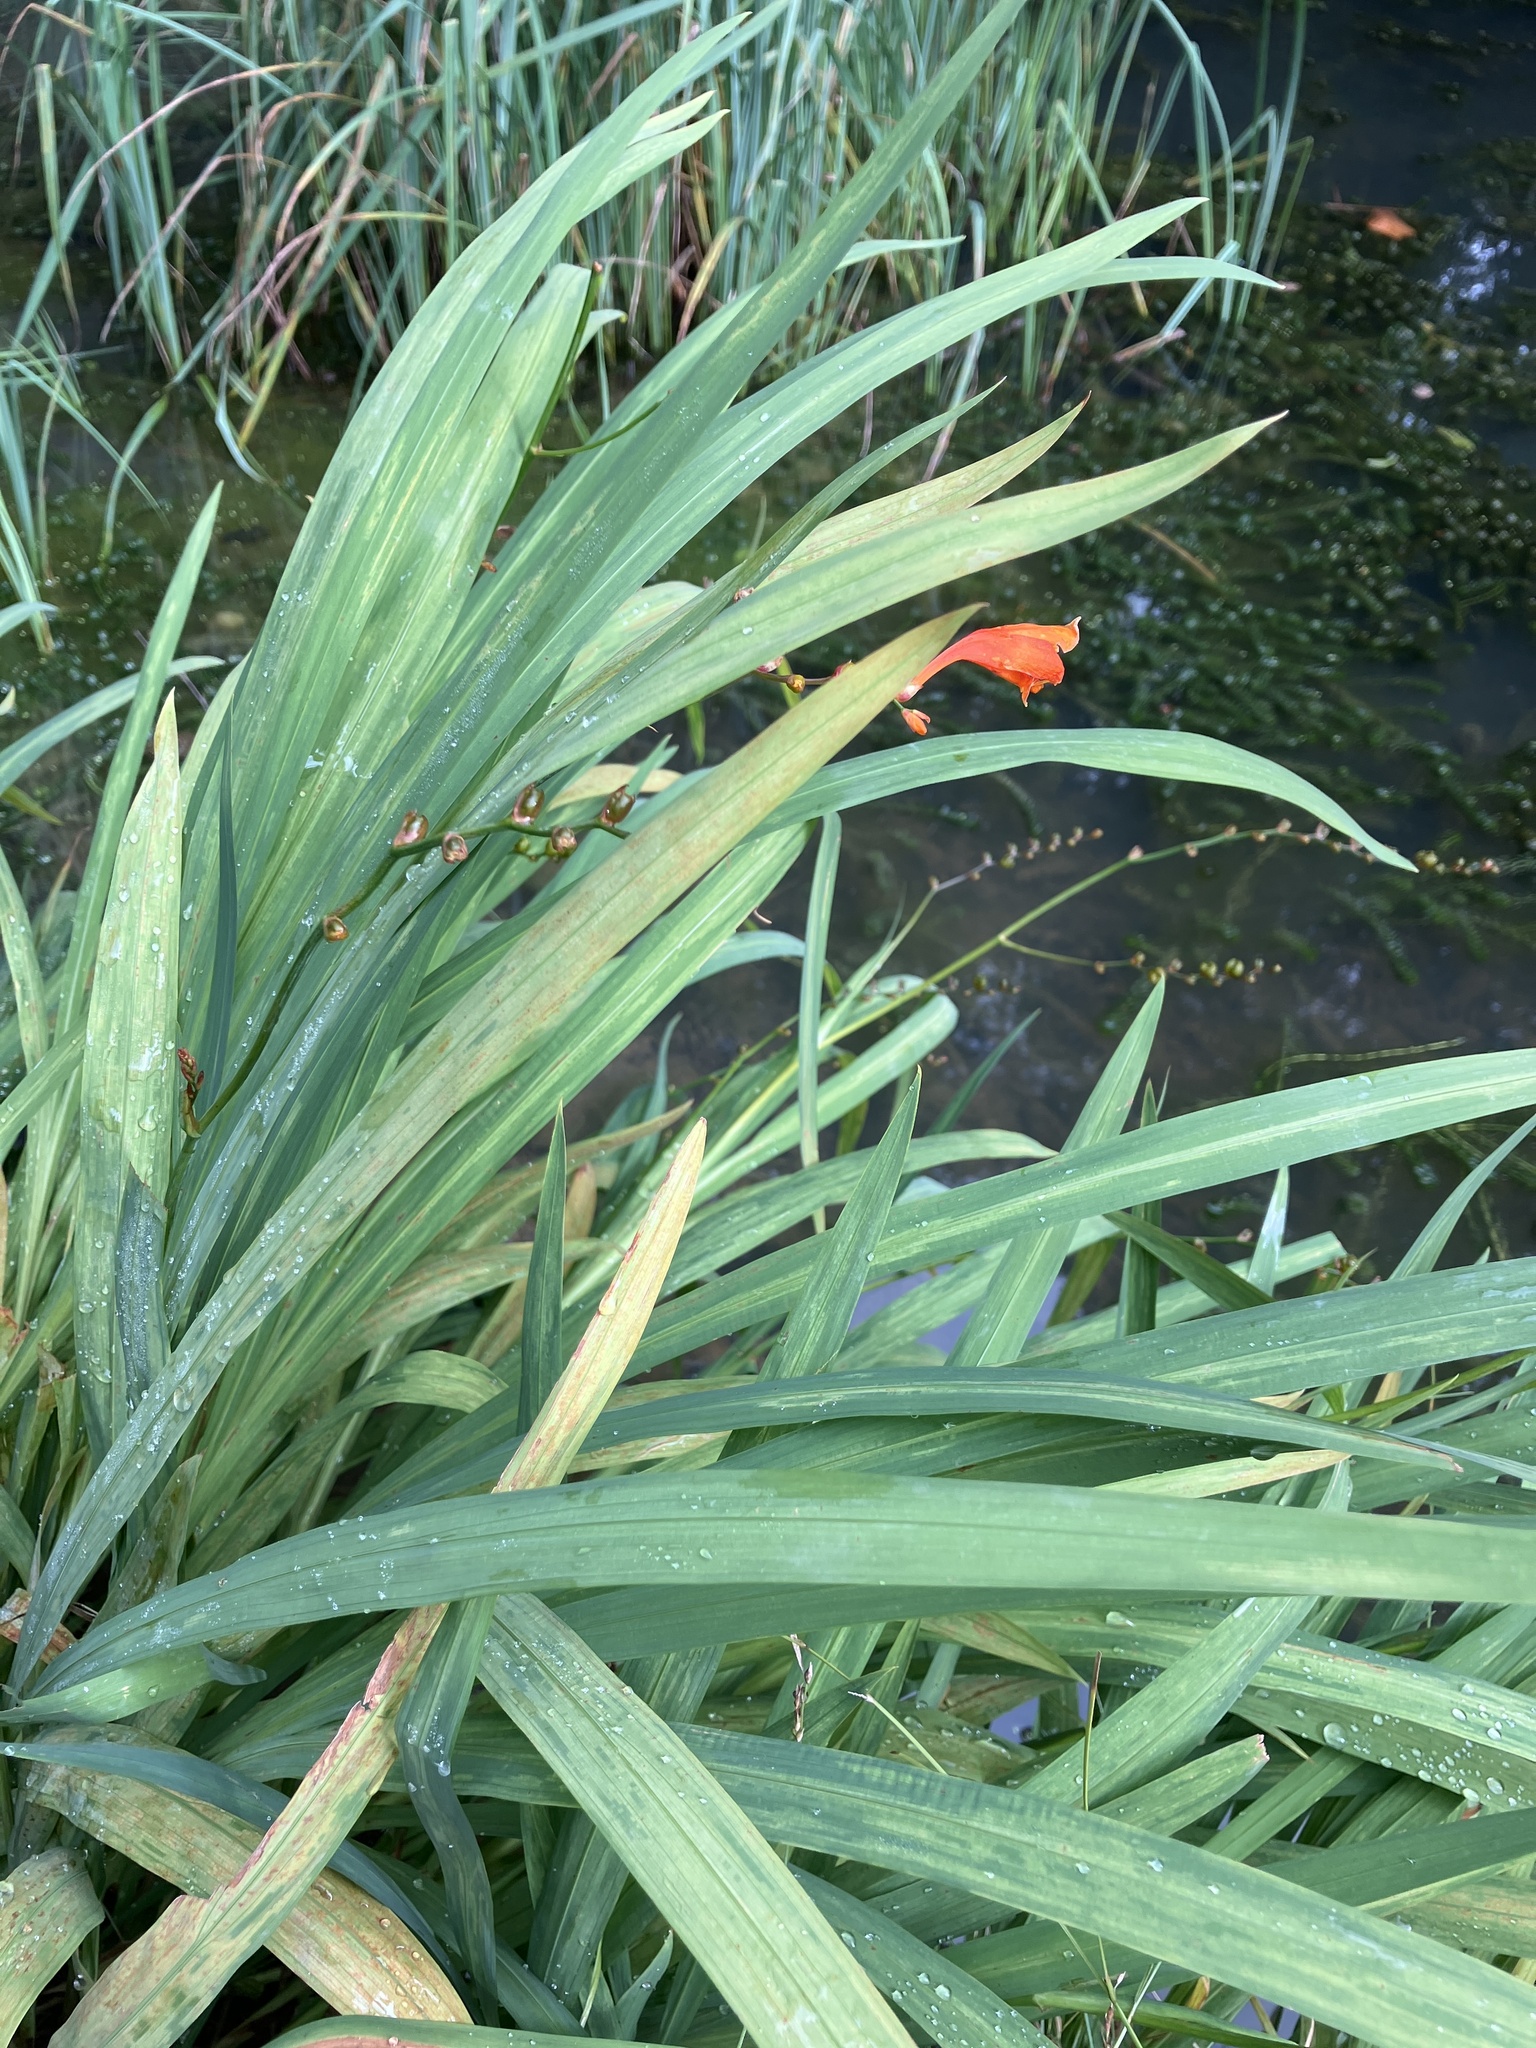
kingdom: Plantae
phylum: Tracheophyta
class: Liliopsida
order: Asparagales
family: Iridaceae
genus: Crocosmia
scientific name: Crocosmia crocosmiiflora
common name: Montbretia
